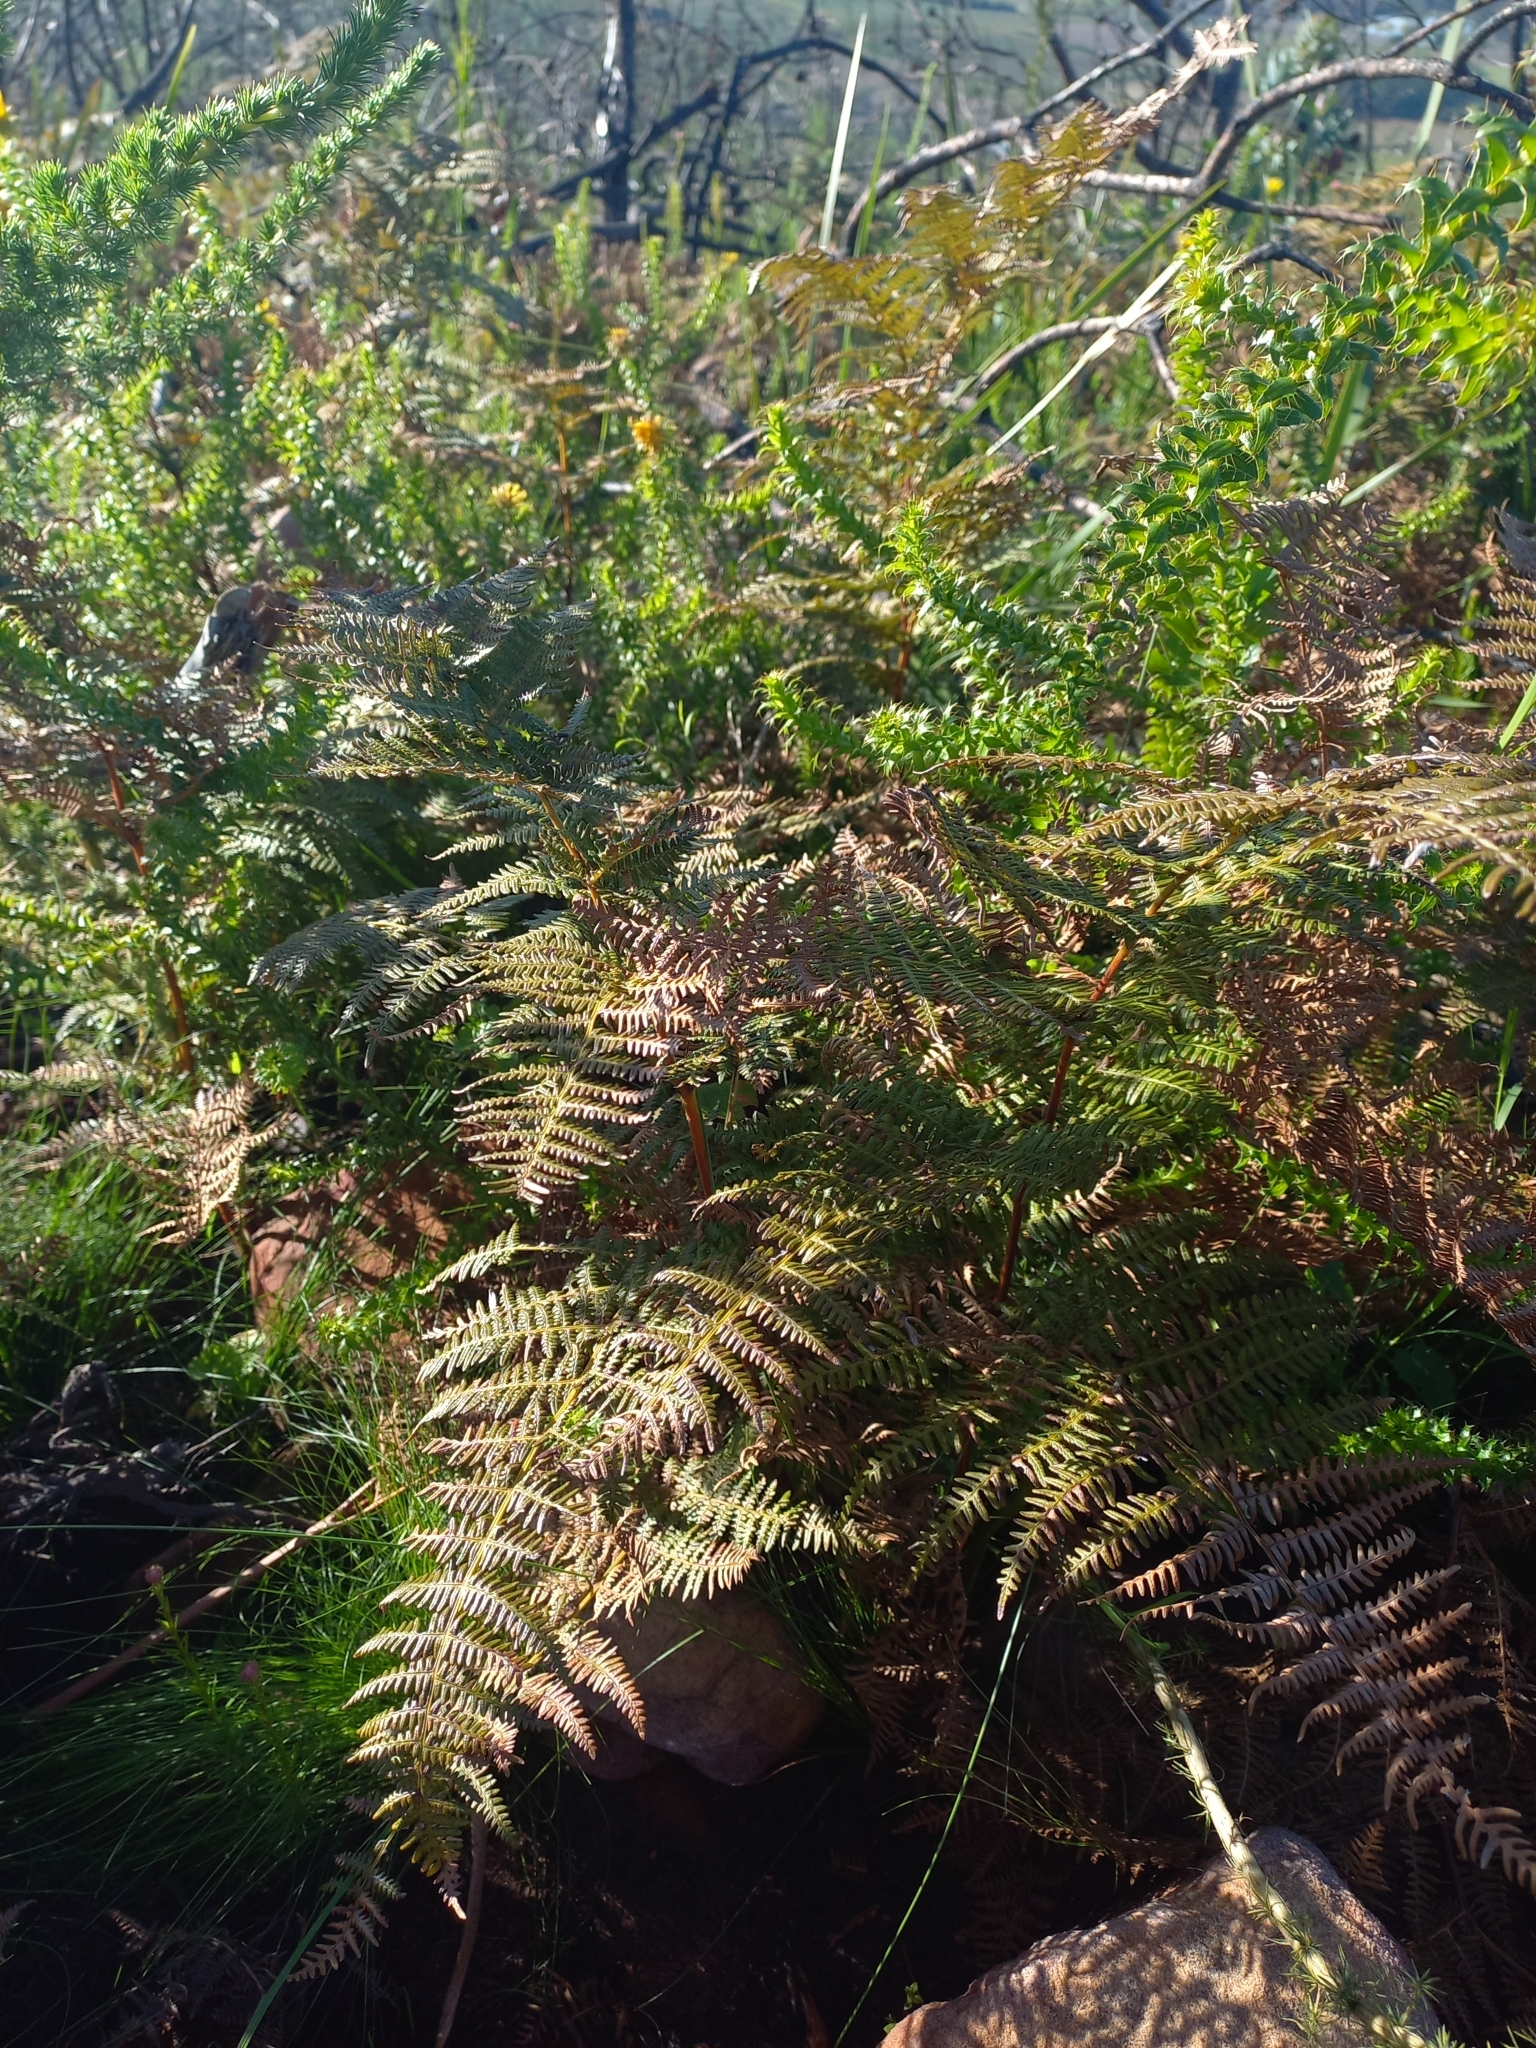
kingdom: Plantae
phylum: Tracheophyta
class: Polypodiopsida
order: Polypodiales
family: Dennstaedtiaceae
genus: Pteridium
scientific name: Pteridium aquilinum
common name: Bracken
